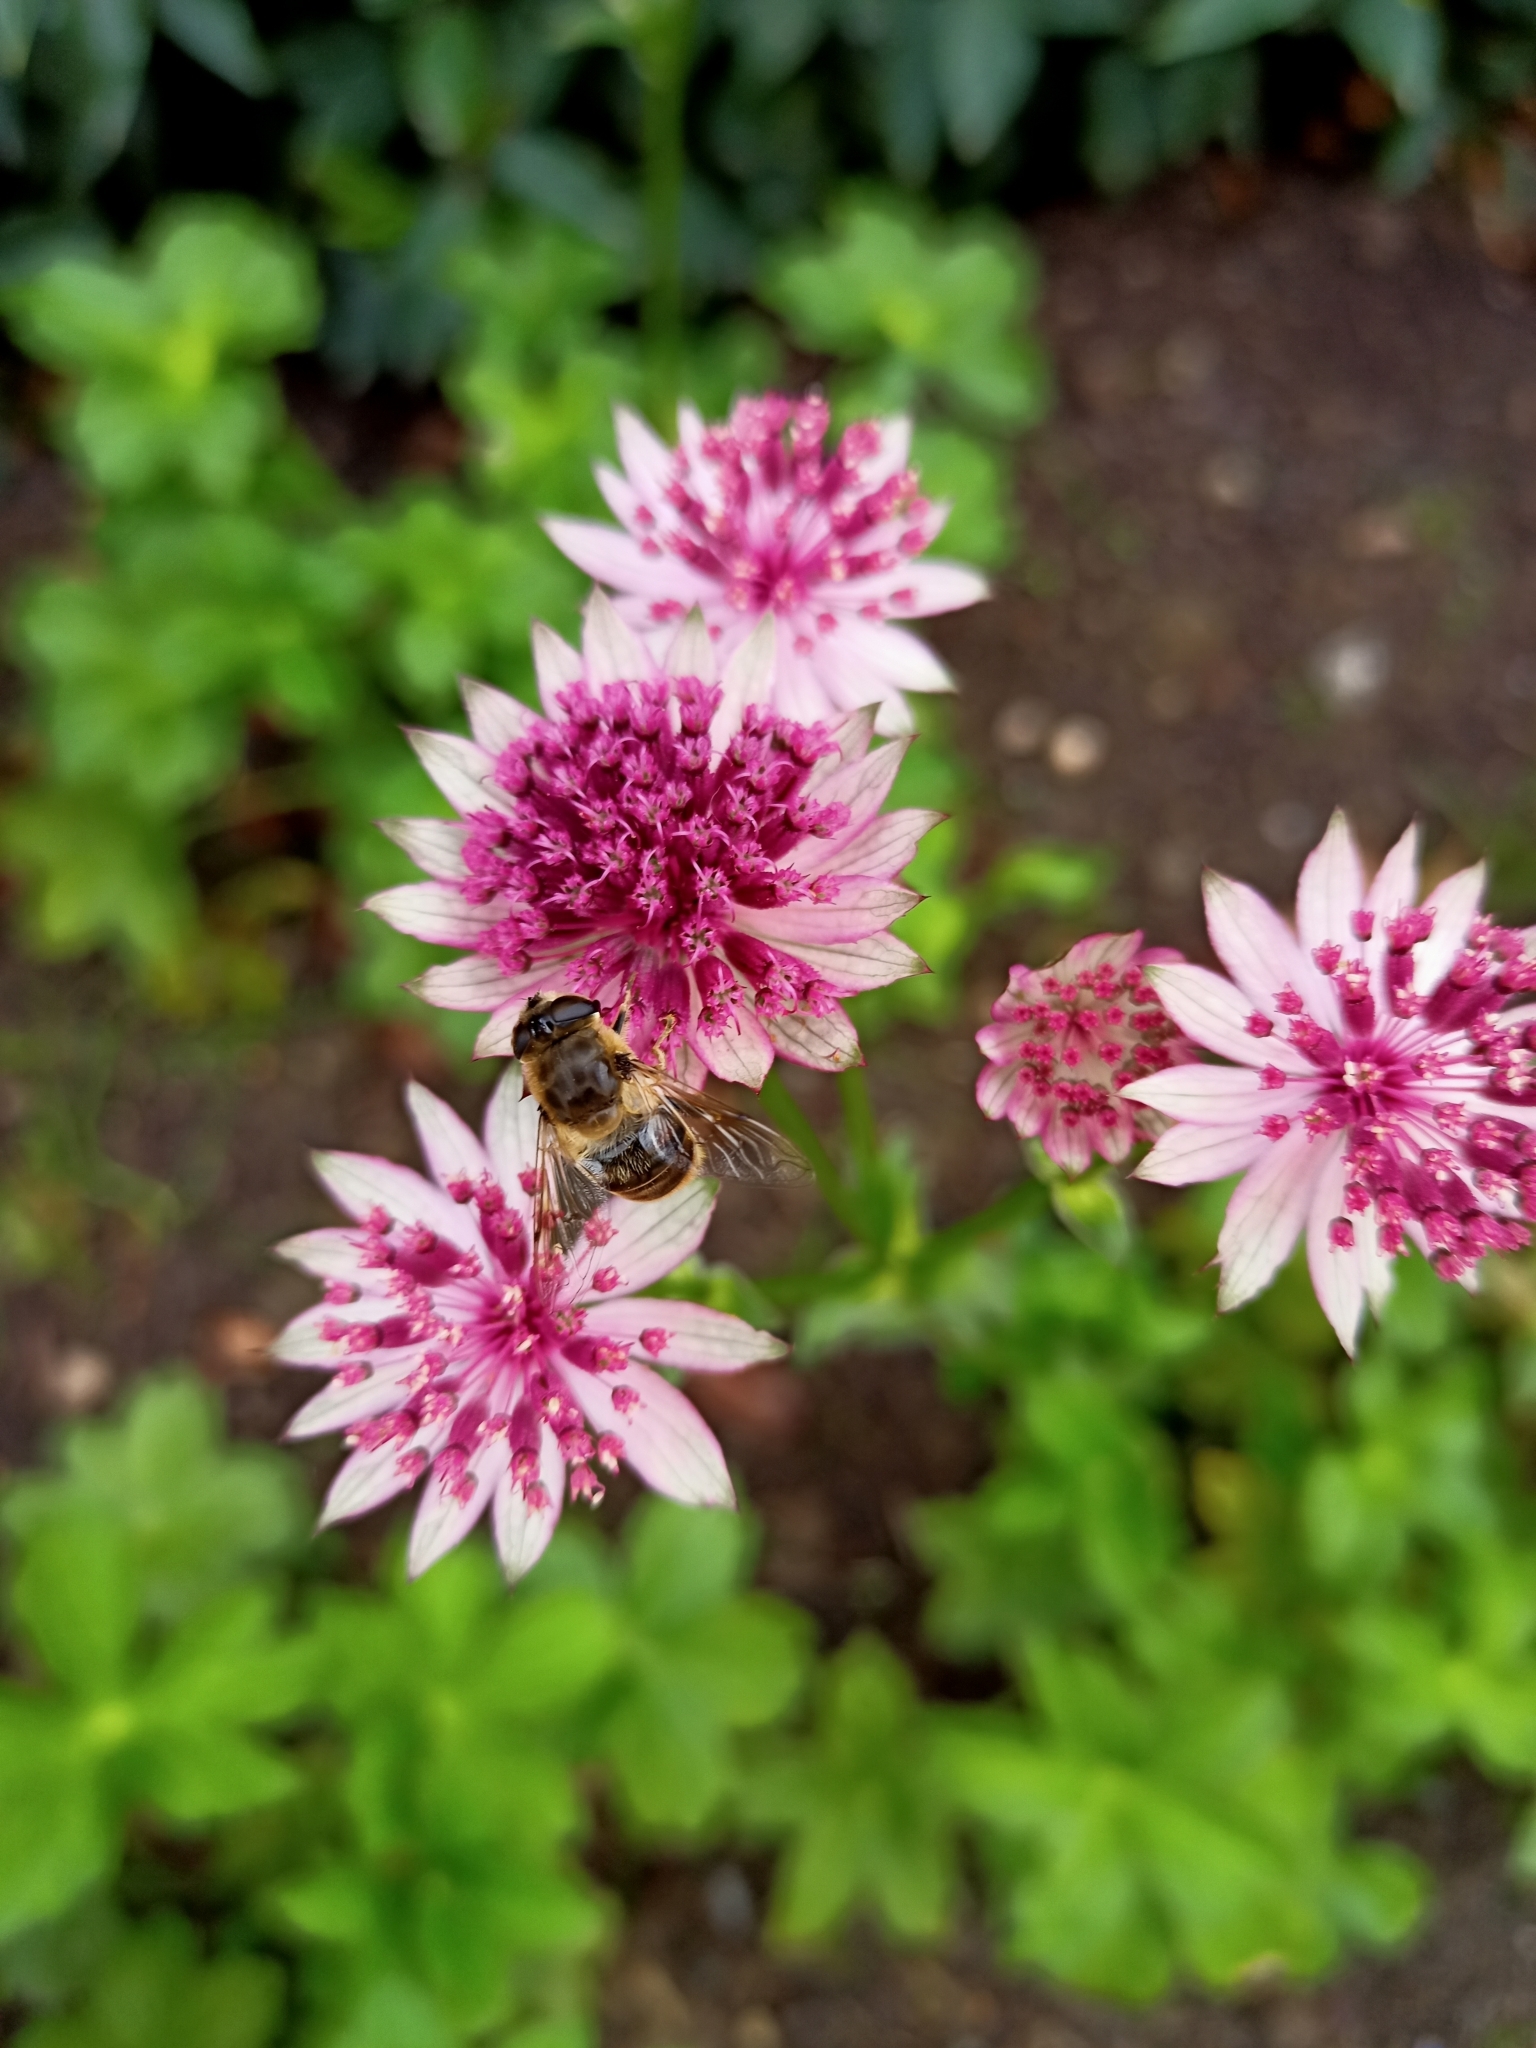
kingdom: Animalia
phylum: Arthropoda
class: Insecta
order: Diptera
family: Syrphidae
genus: Eristalis
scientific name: Eristalis tenax
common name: Drone fly
